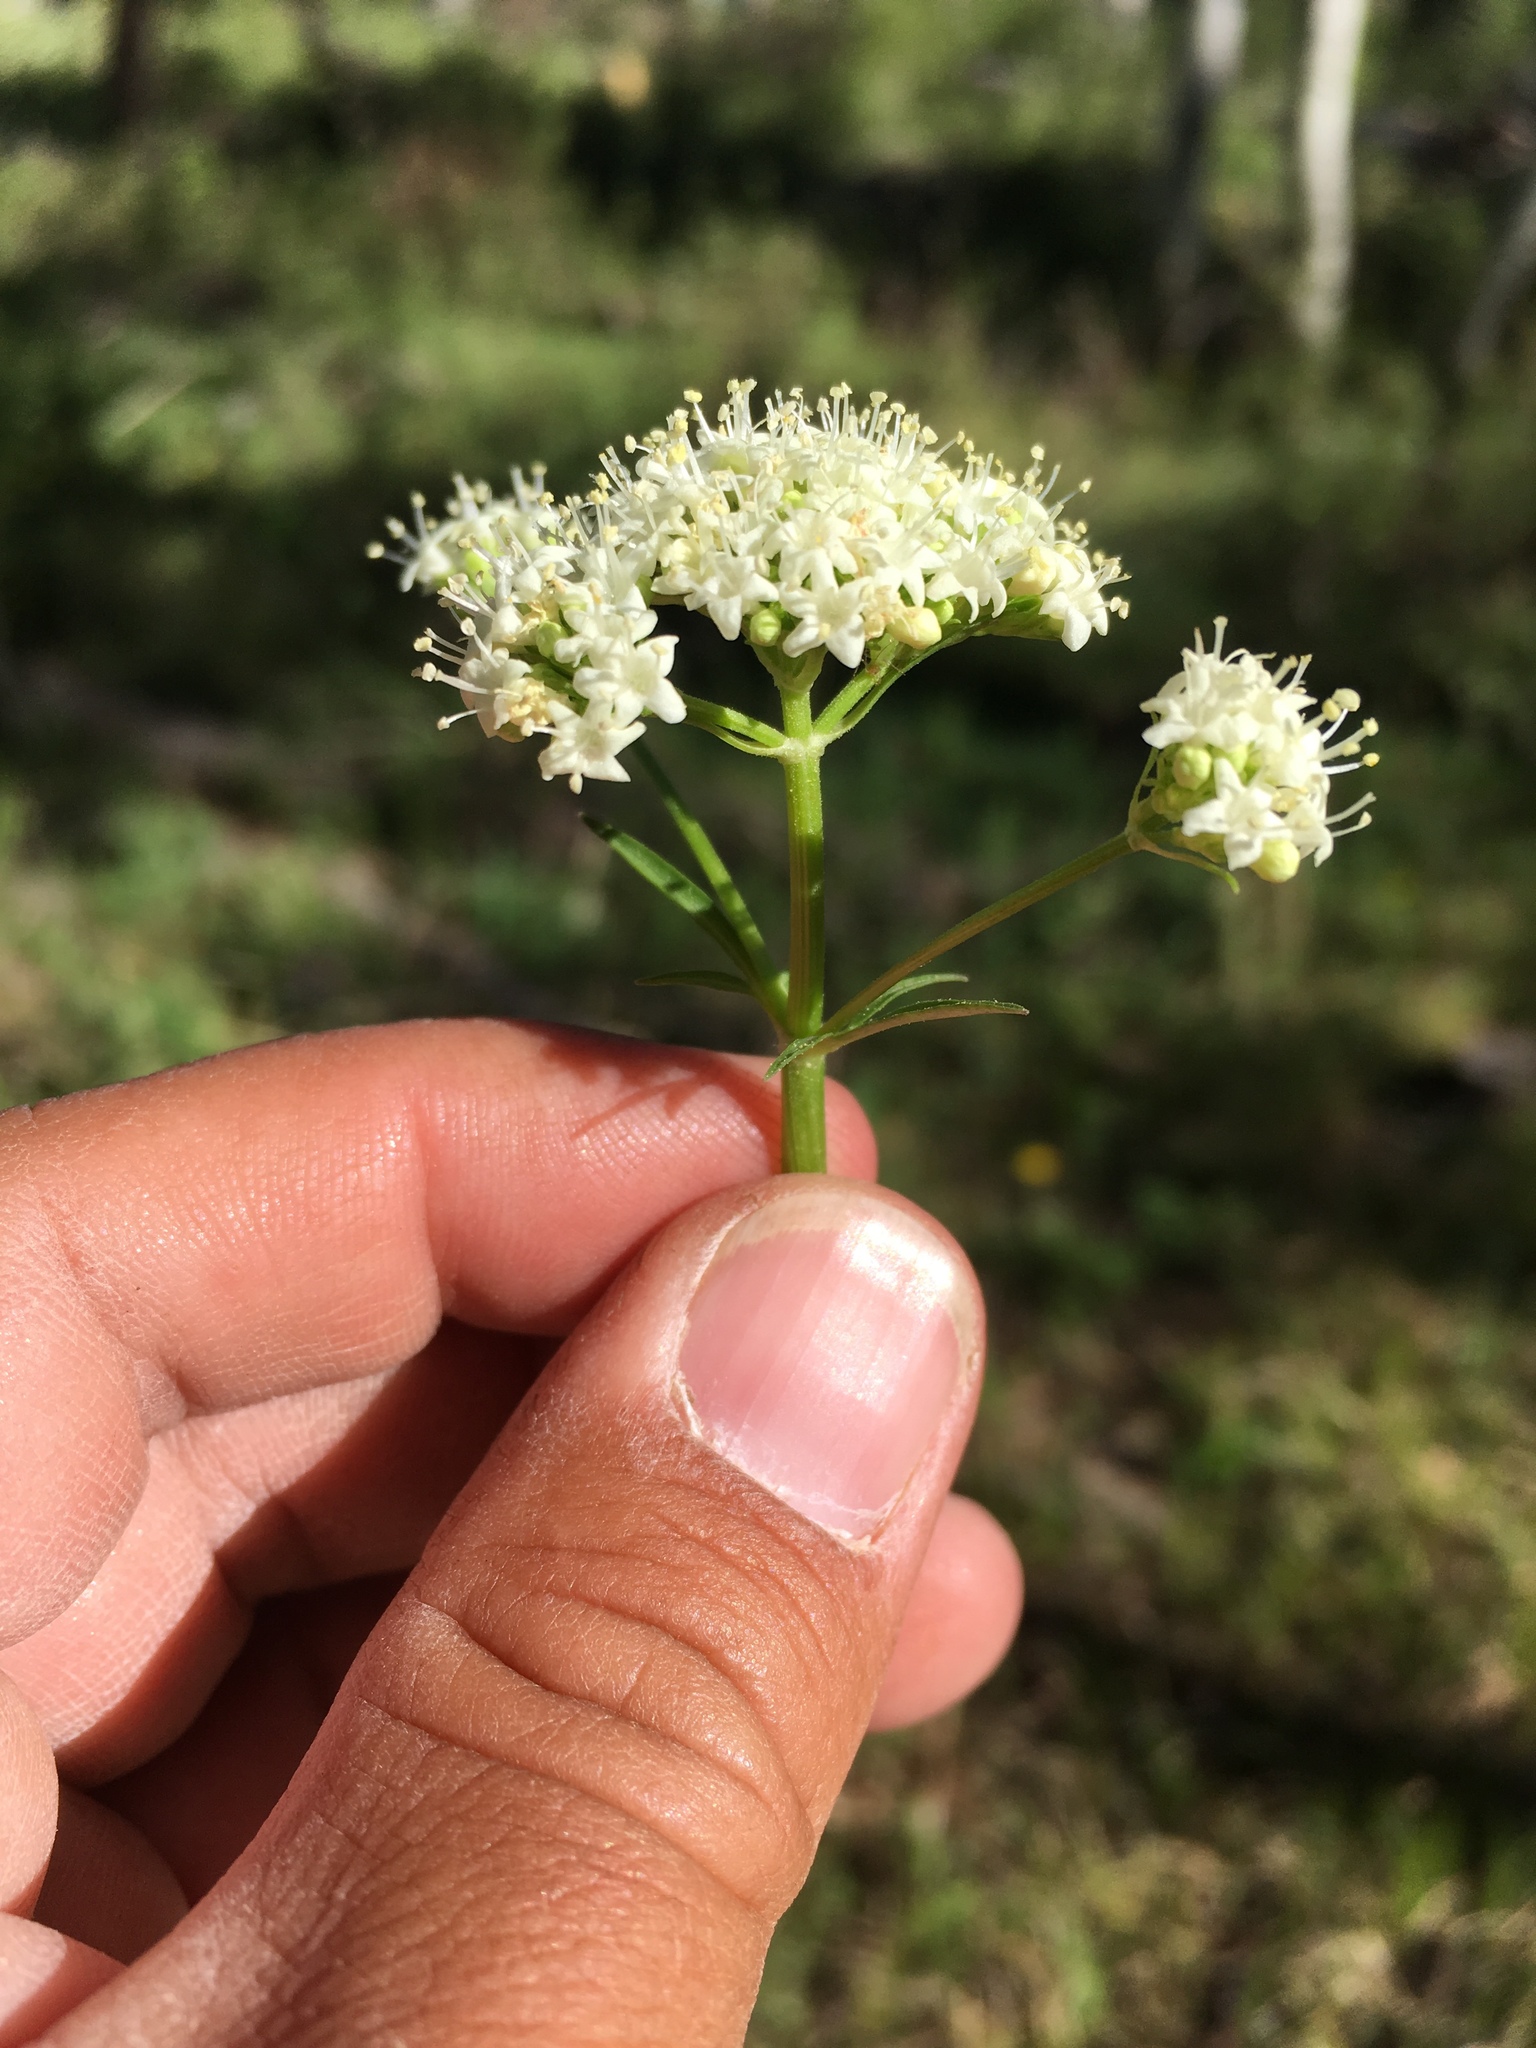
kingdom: Plantae
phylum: Tracheophyta
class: Magnoliopsida
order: Dipsacales
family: Caprifoliaceae
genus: Valeriana
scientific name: Valeriana occidentalis
